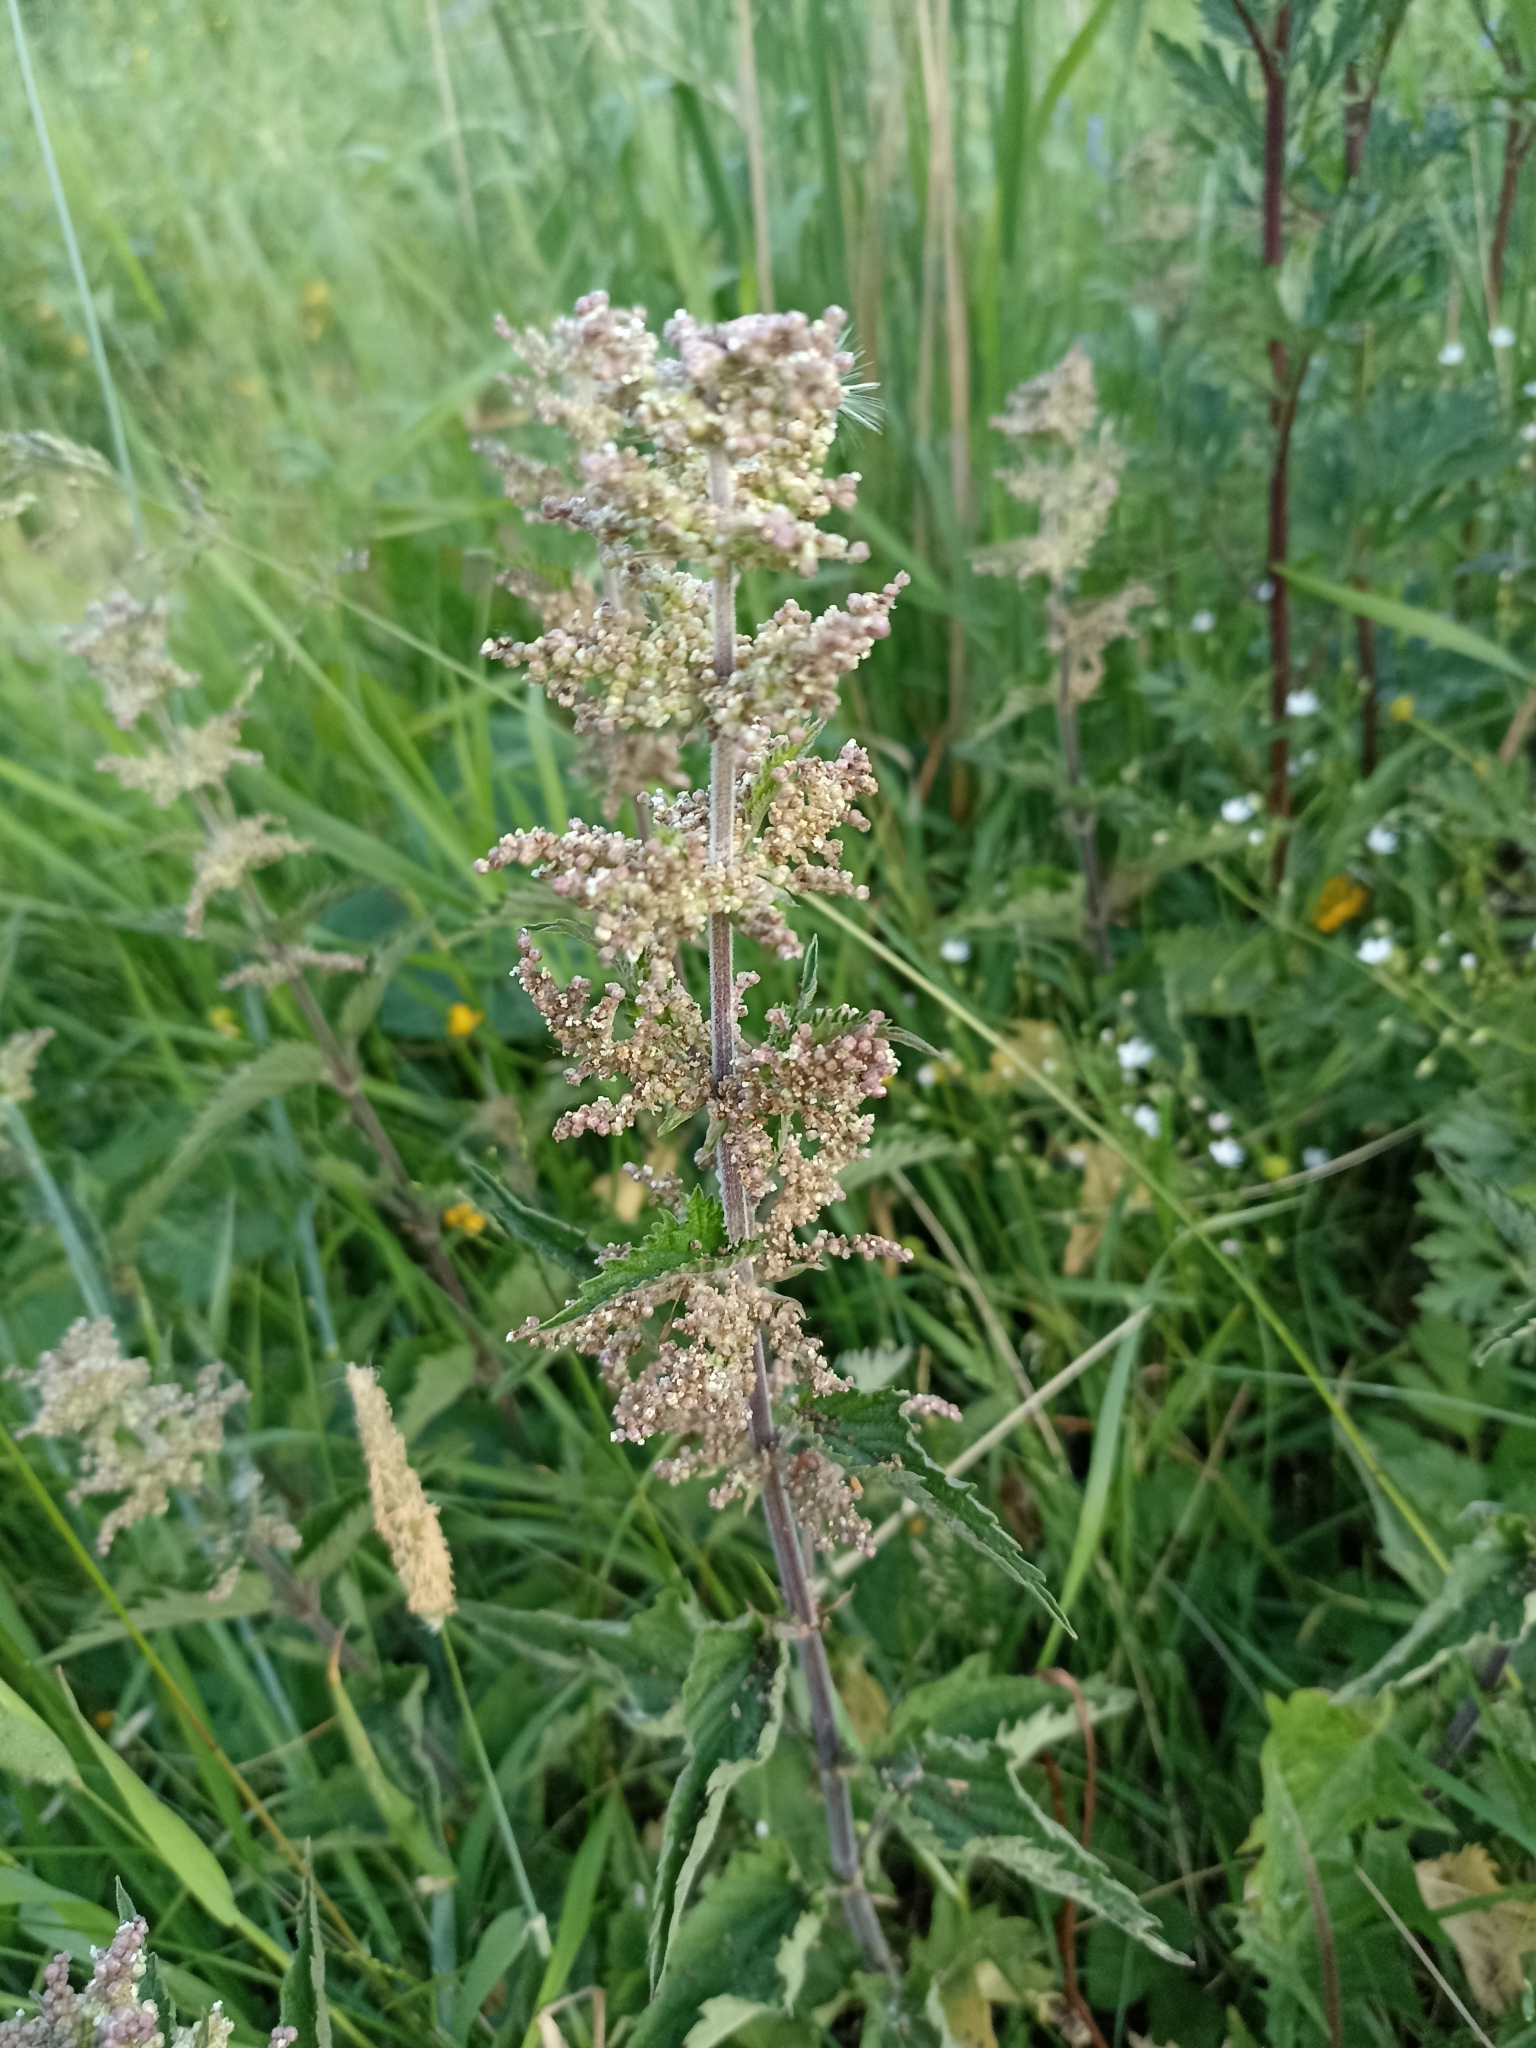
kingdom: Plantae
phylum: Tracheophyta
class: Magnoliopsida
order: Rosales
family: Urticaceae
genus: Urtica
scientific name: Urtica dioica
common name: Common nettle
